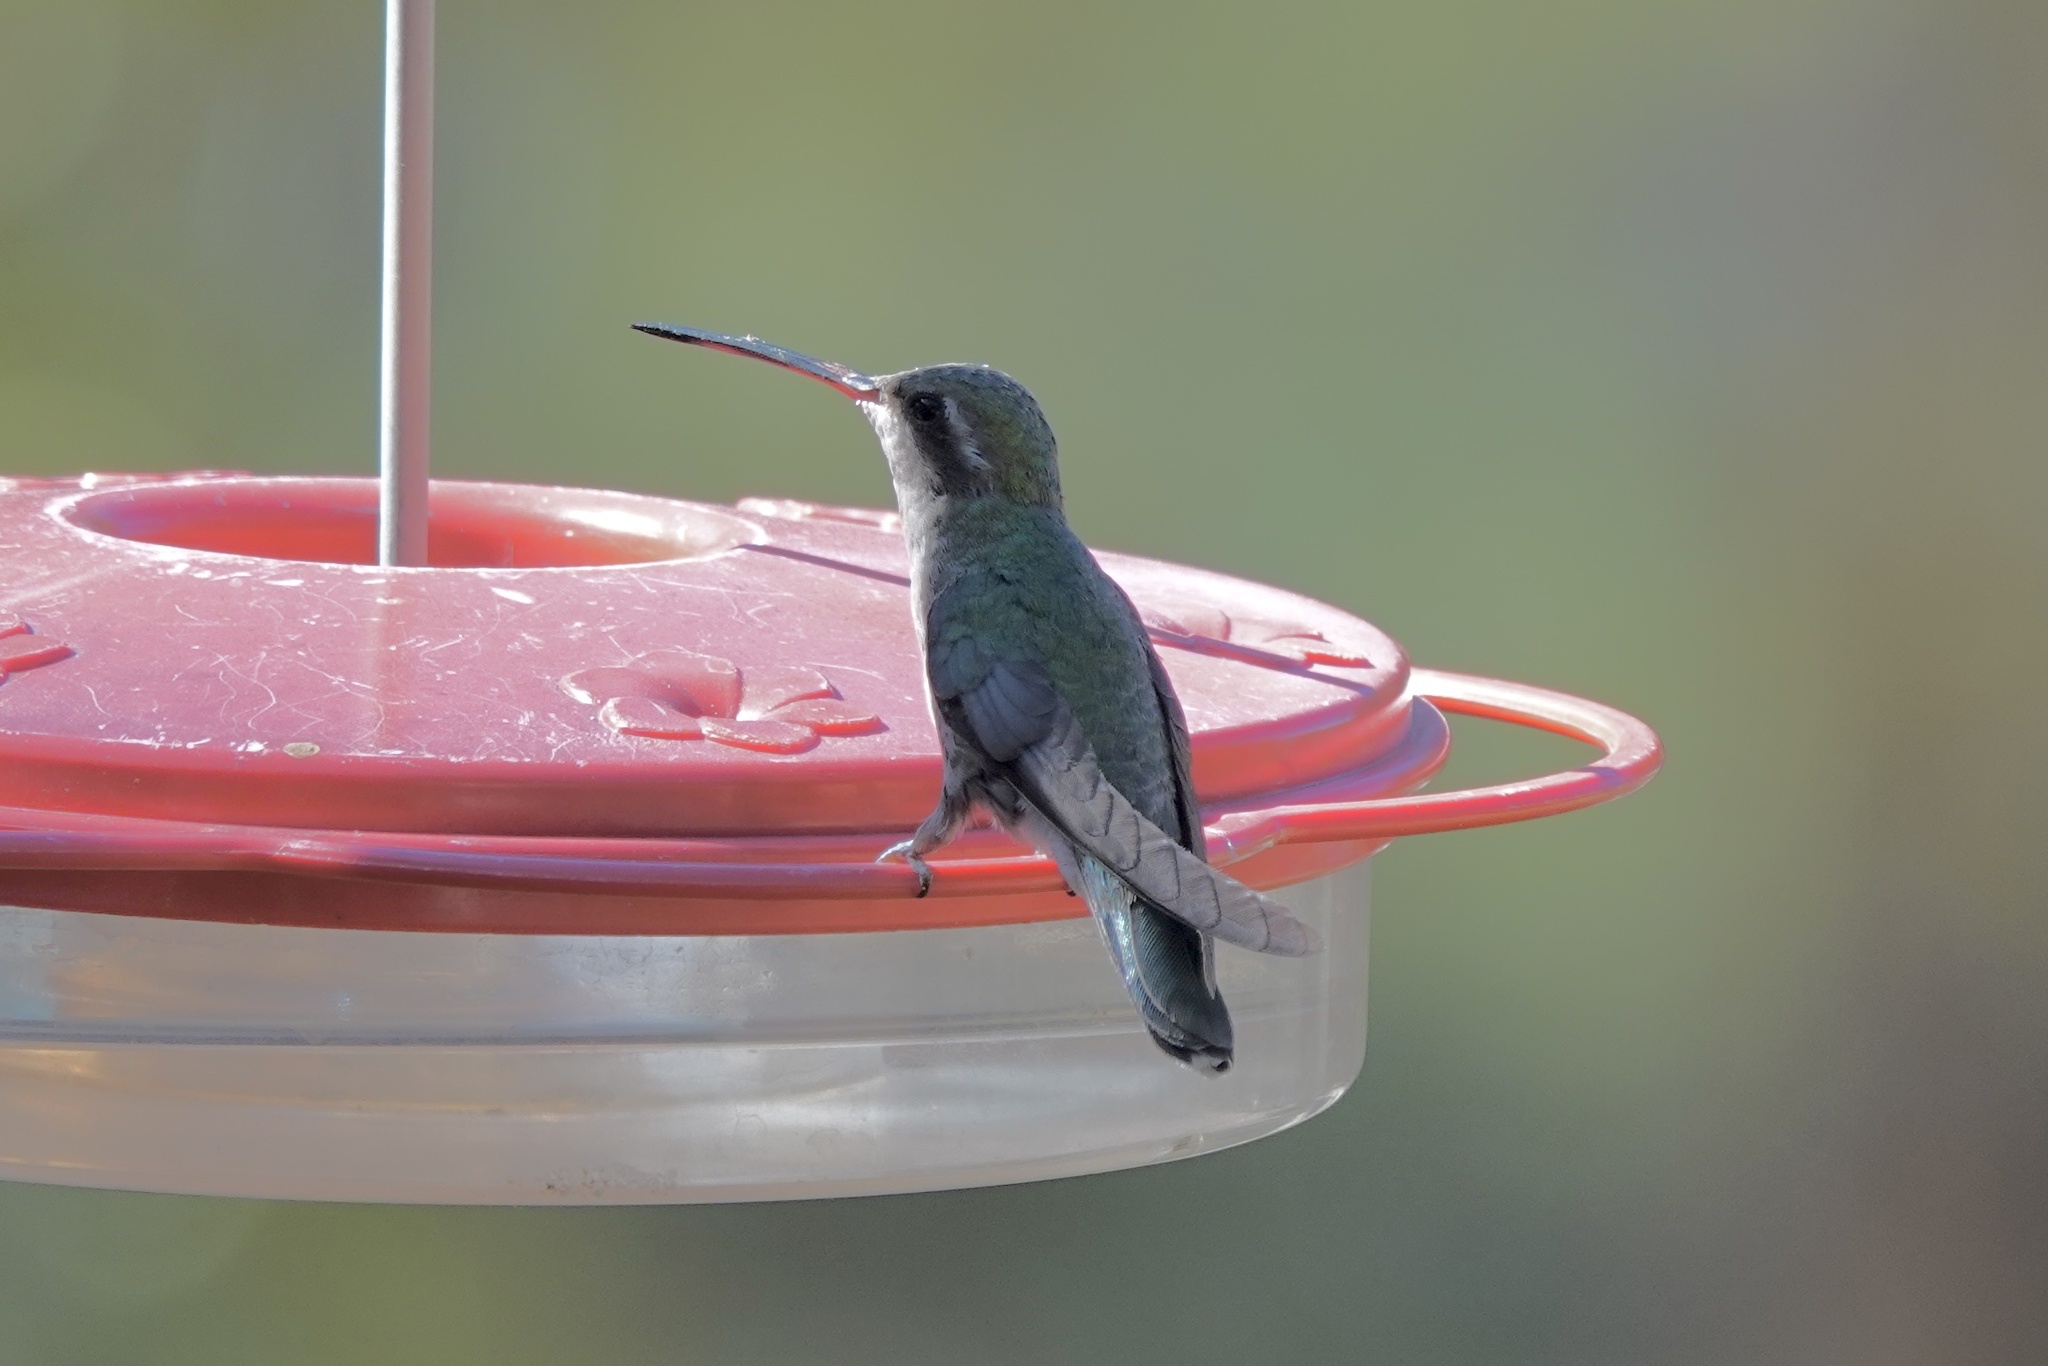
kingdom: Animalia
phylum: Chordata
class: Aves
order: Apodiformes
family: Trochilidae
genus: Cynanthus
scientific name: Cynanthus latirostris
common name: Broad-billed hummingbird
